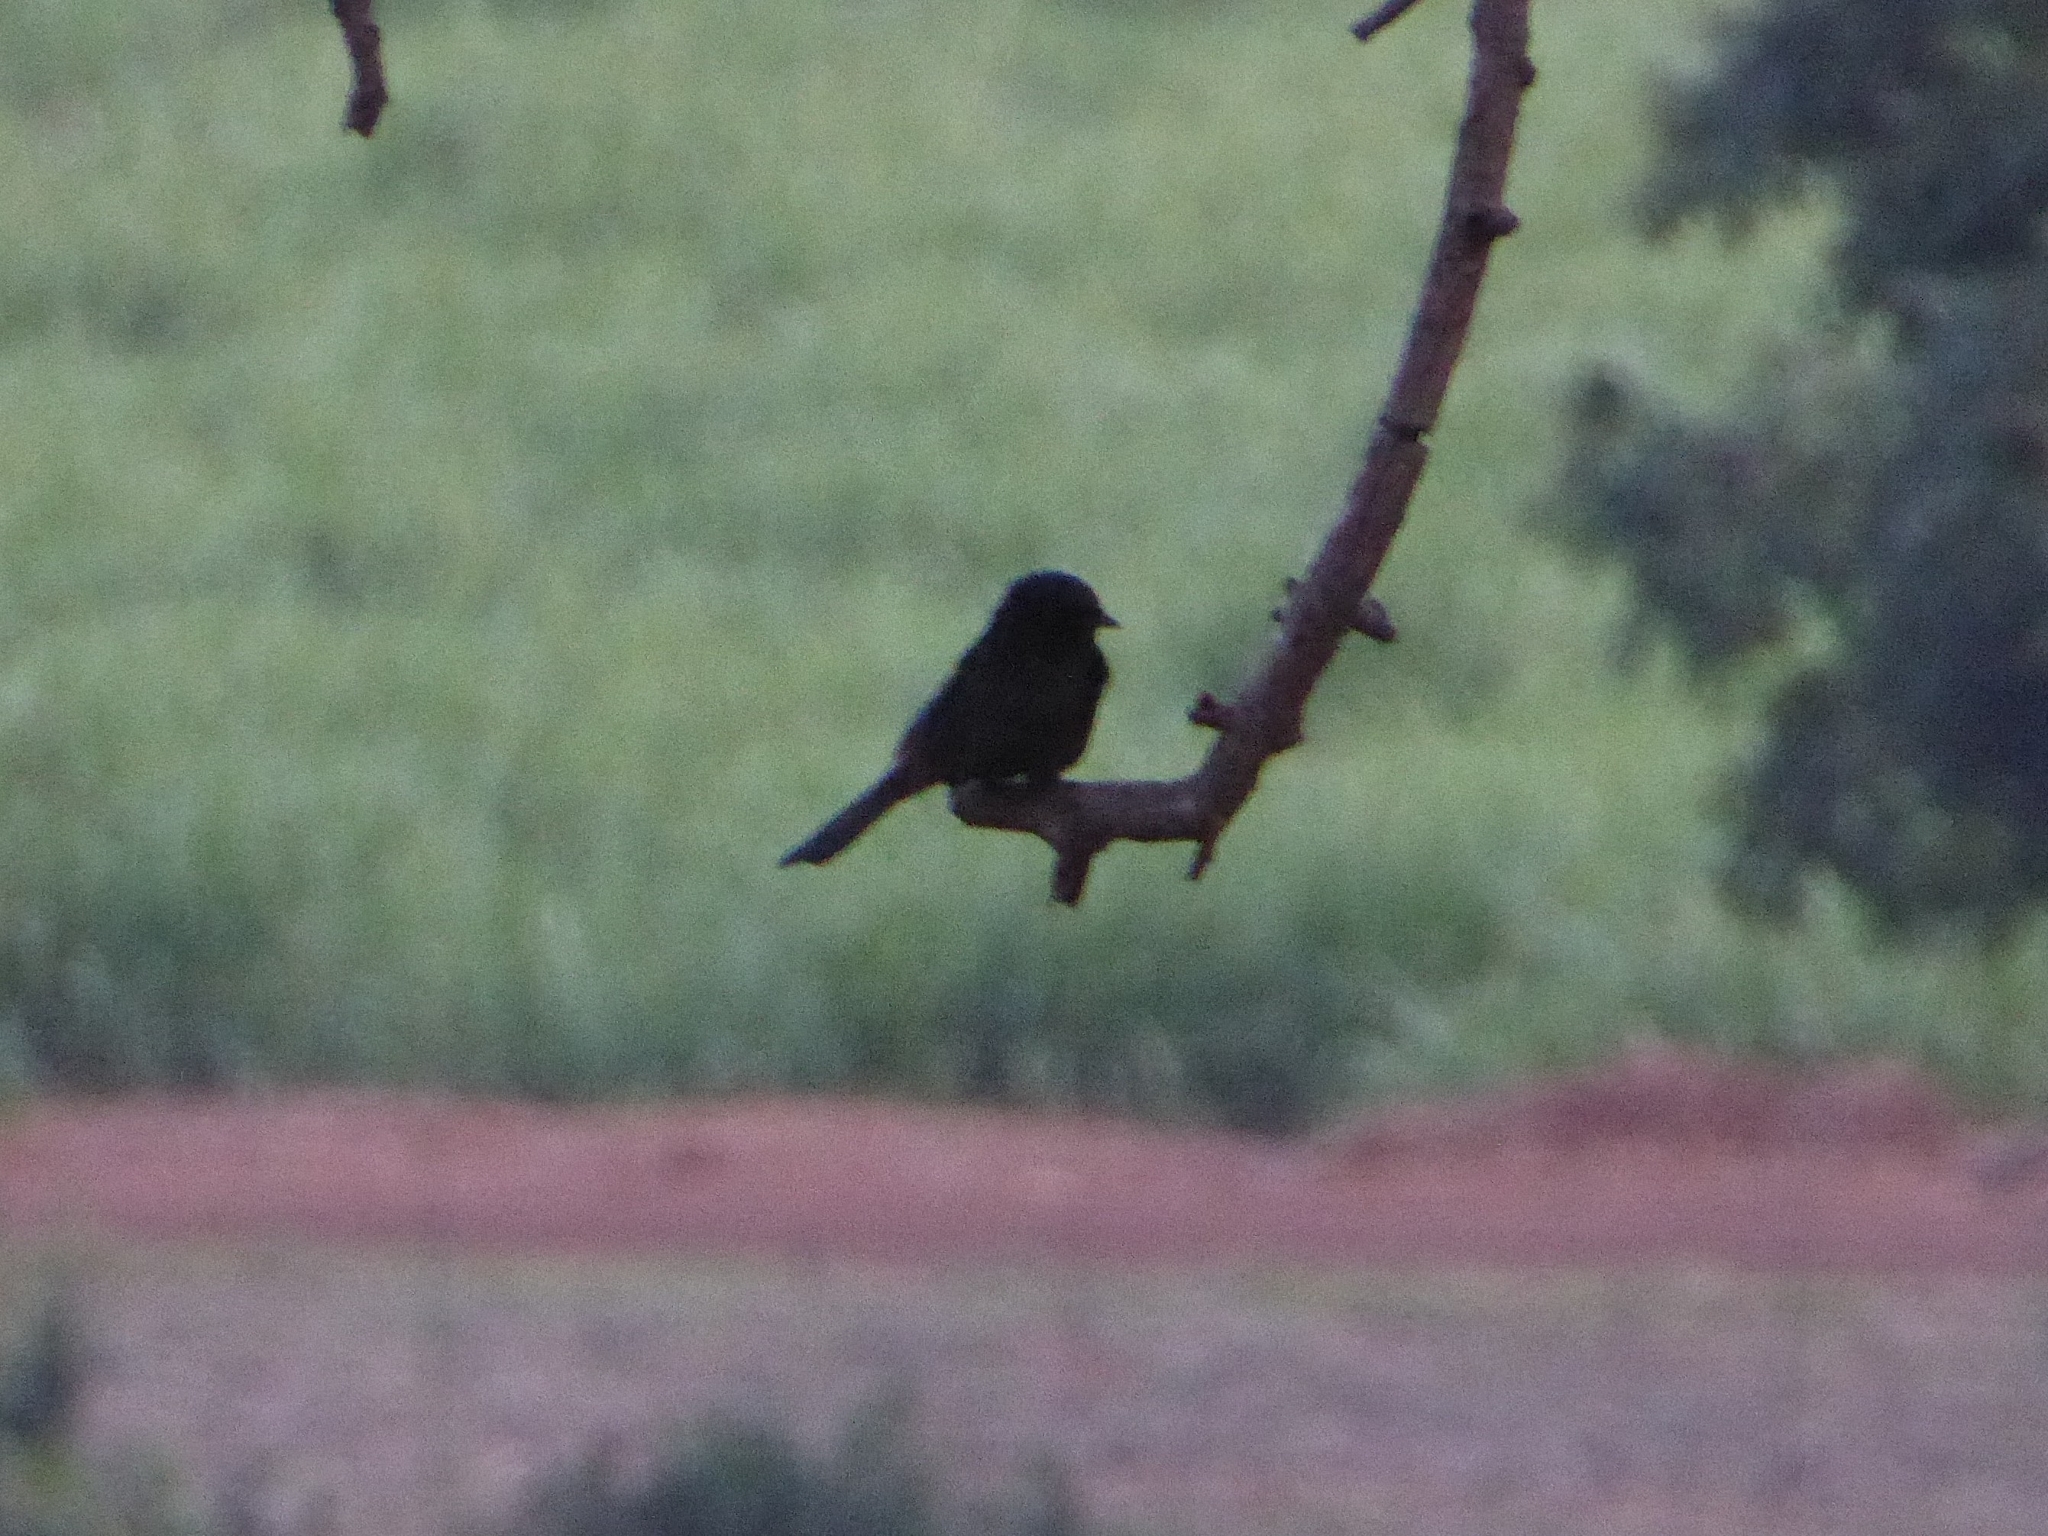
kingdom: Animalia
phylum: Chordata
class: Aves
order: Passeriformes
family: Muscicapidae
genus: Melaenornis
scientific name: Melaenornis pammelaina
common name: Southern black flycatcher
